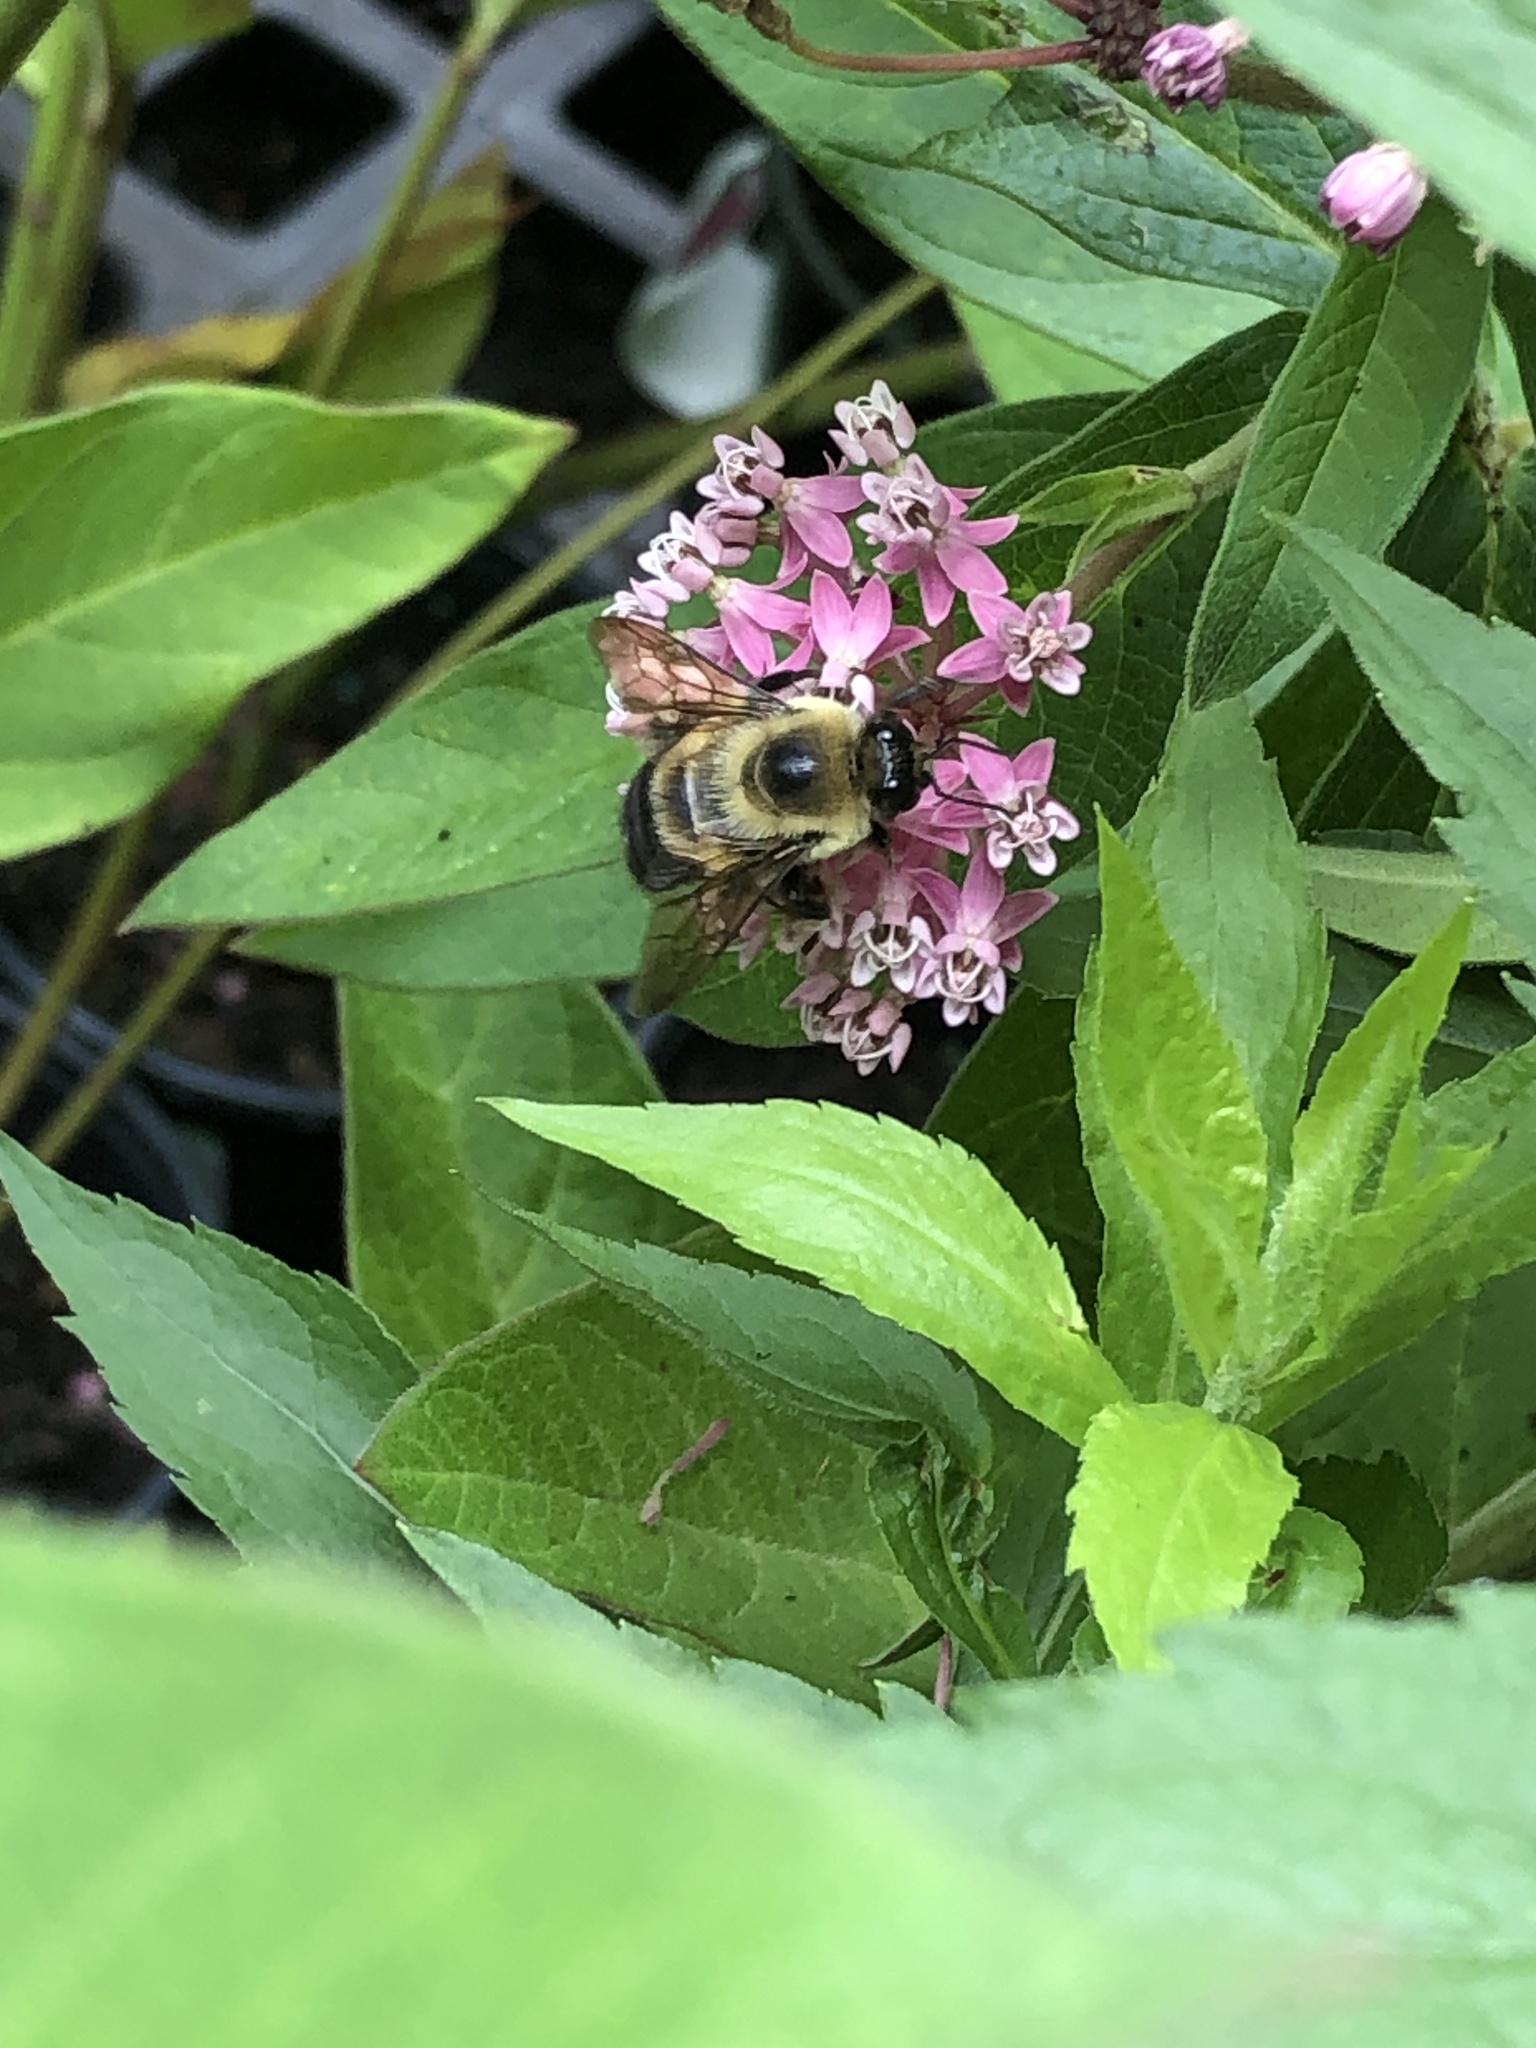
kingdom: Animalia
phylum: Arthropoda
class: Insecta
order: Hymenoptera
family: Apidae
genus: Bombus
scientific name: Bombus griseocollis
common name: Brown-belted bumble bee
